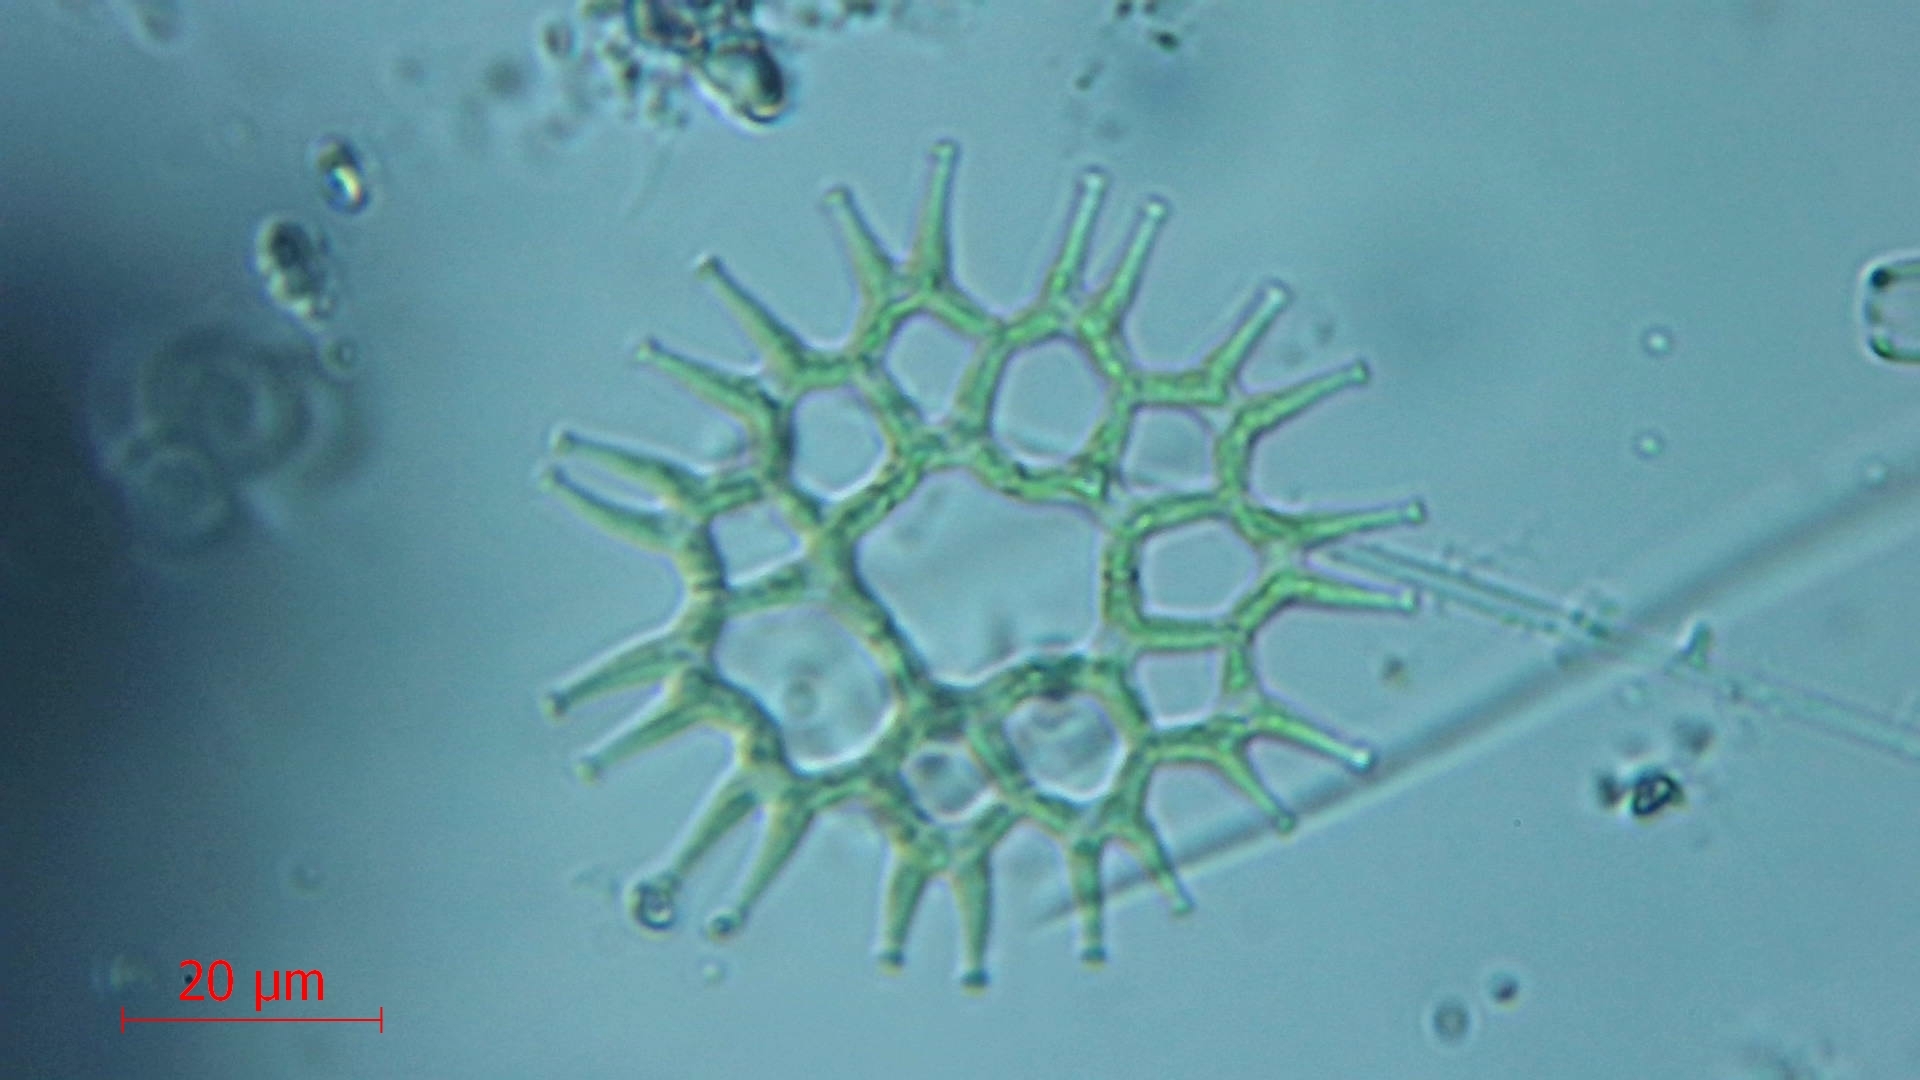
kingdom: Plantae
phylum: Chlorophyta
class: Chlorophyceae
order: Sphaeropleales
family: Hydrodictyaceae
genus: Lacunastrum
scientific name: Lacunastrum gracillimum
